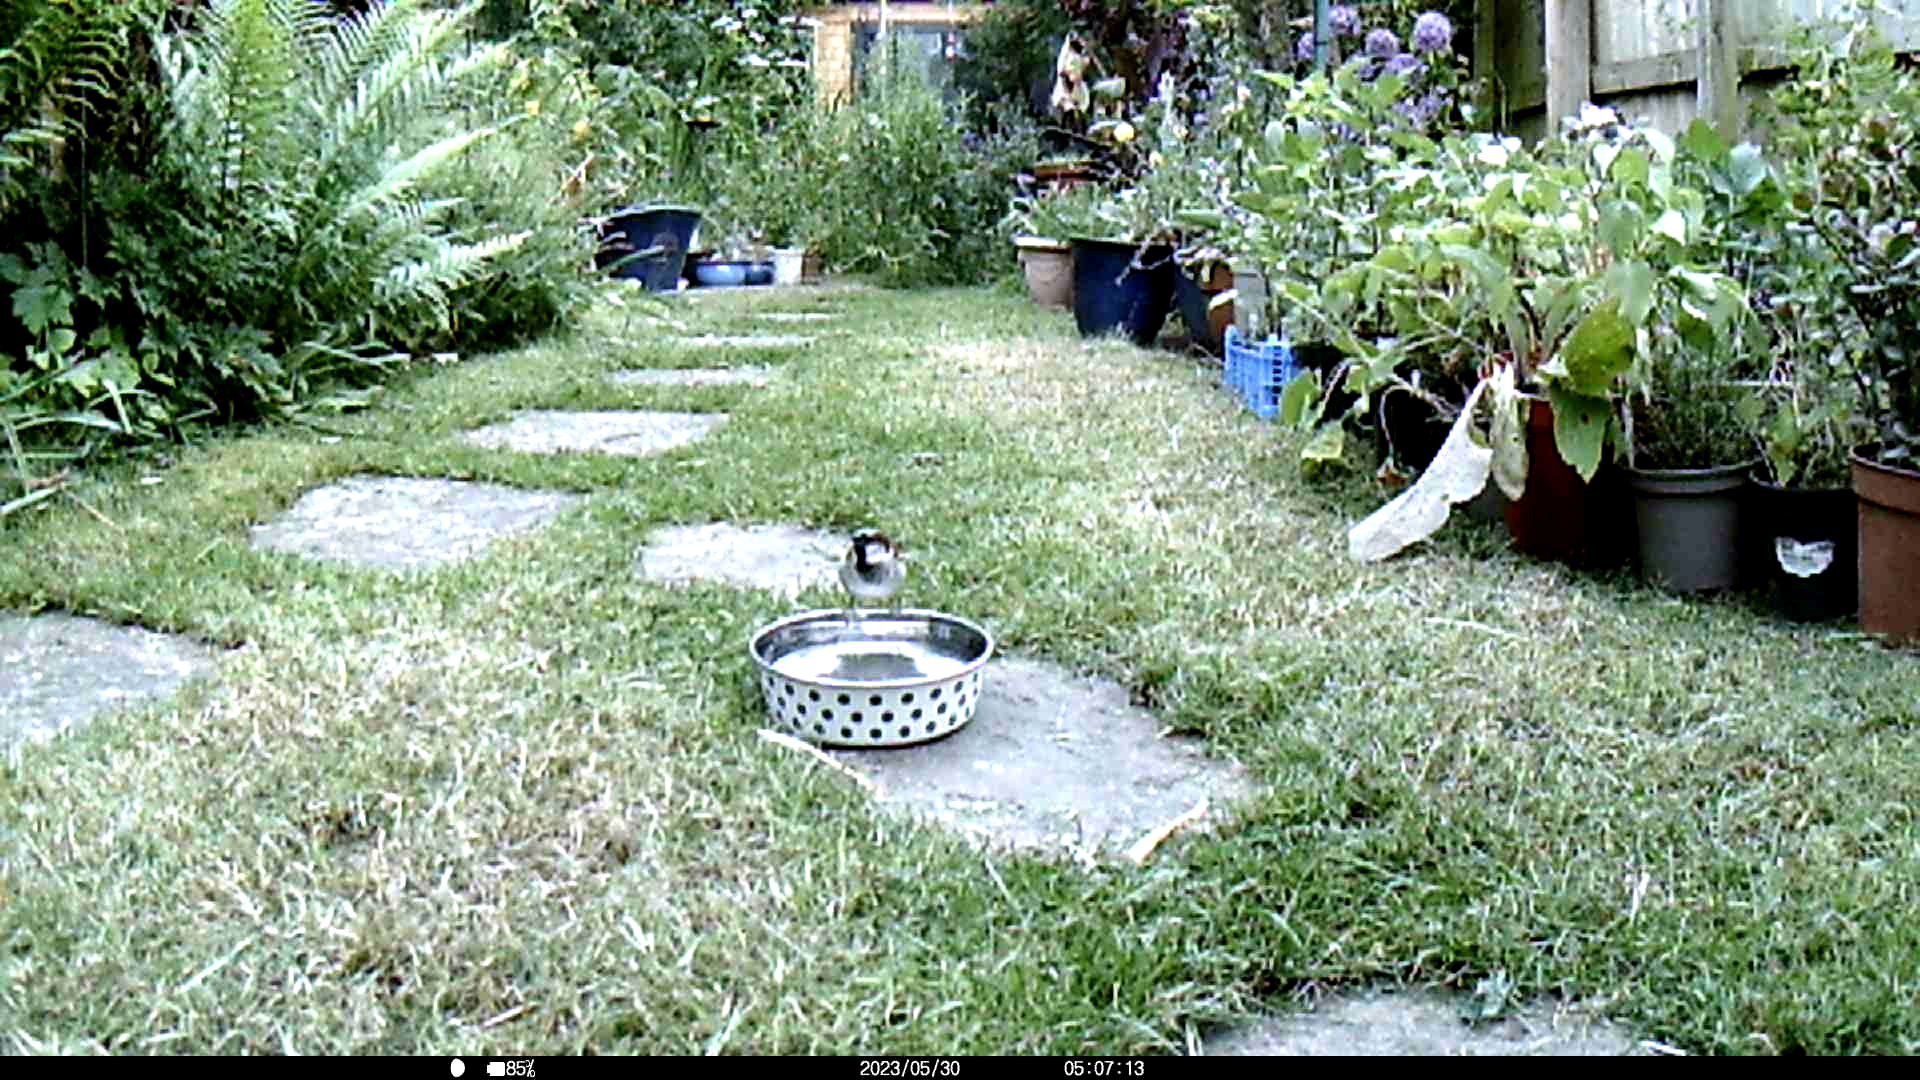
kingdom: Animalia
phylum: Chordata
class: Aves
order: Passeriformes
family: Passeridae
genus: Passer
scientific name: Passer domesticus
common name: House sparrow
